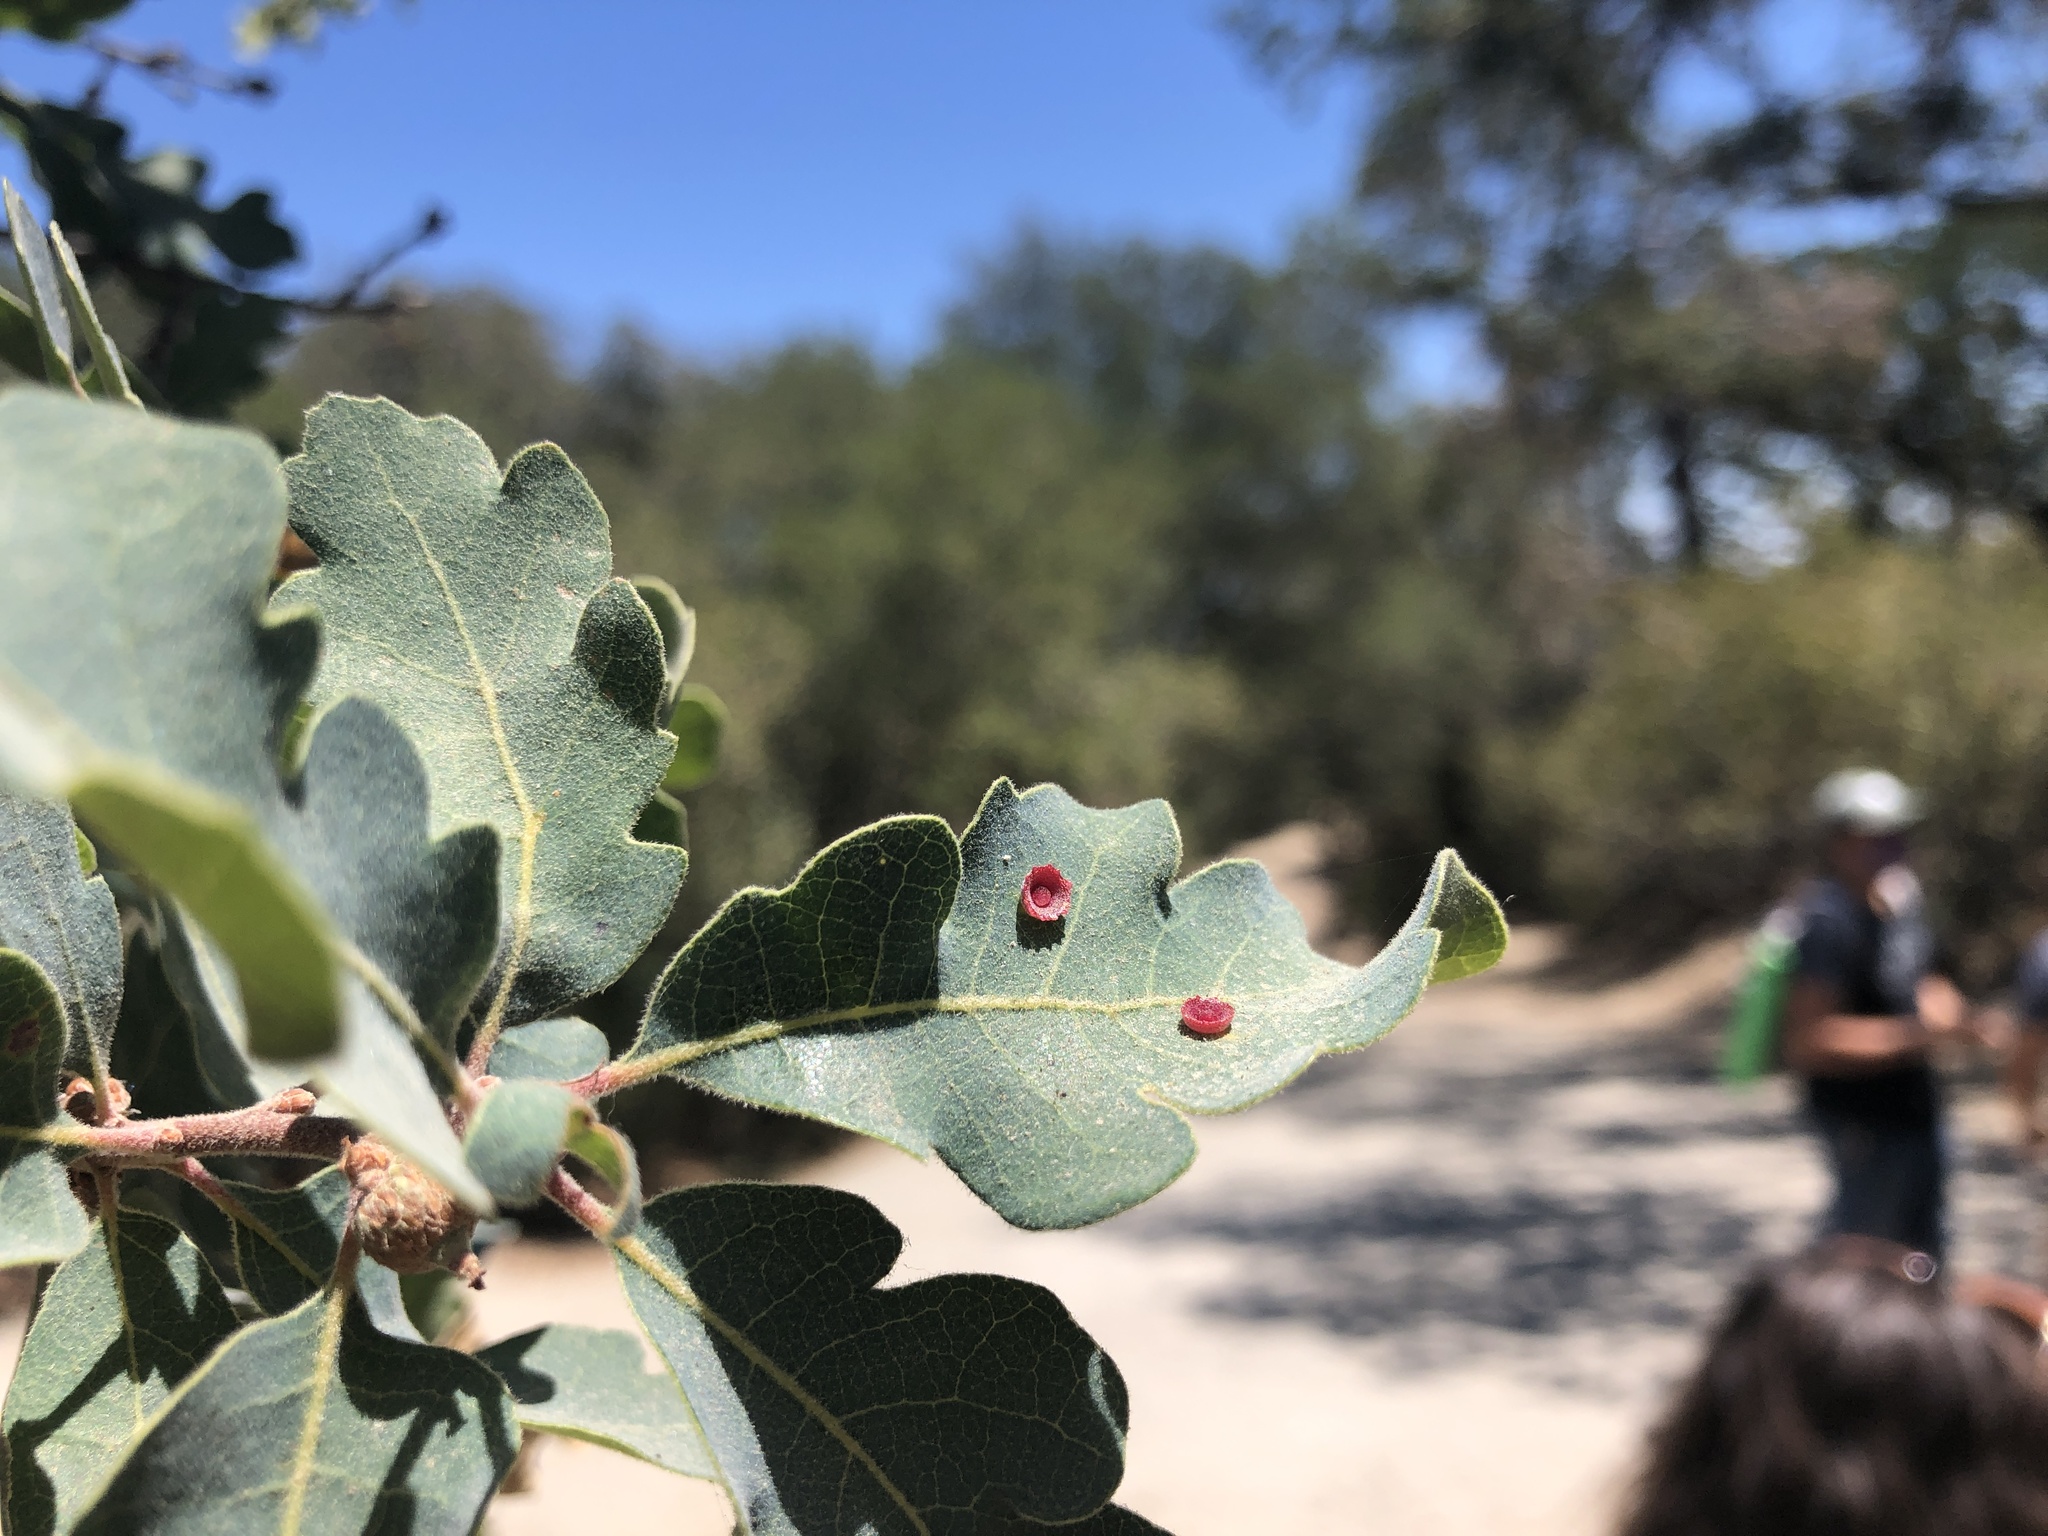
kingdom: Animalia
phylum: Arthropoda
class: Insecta
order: Hymenoptera
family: Cynipidae
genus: Andricus
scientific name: Andricus
